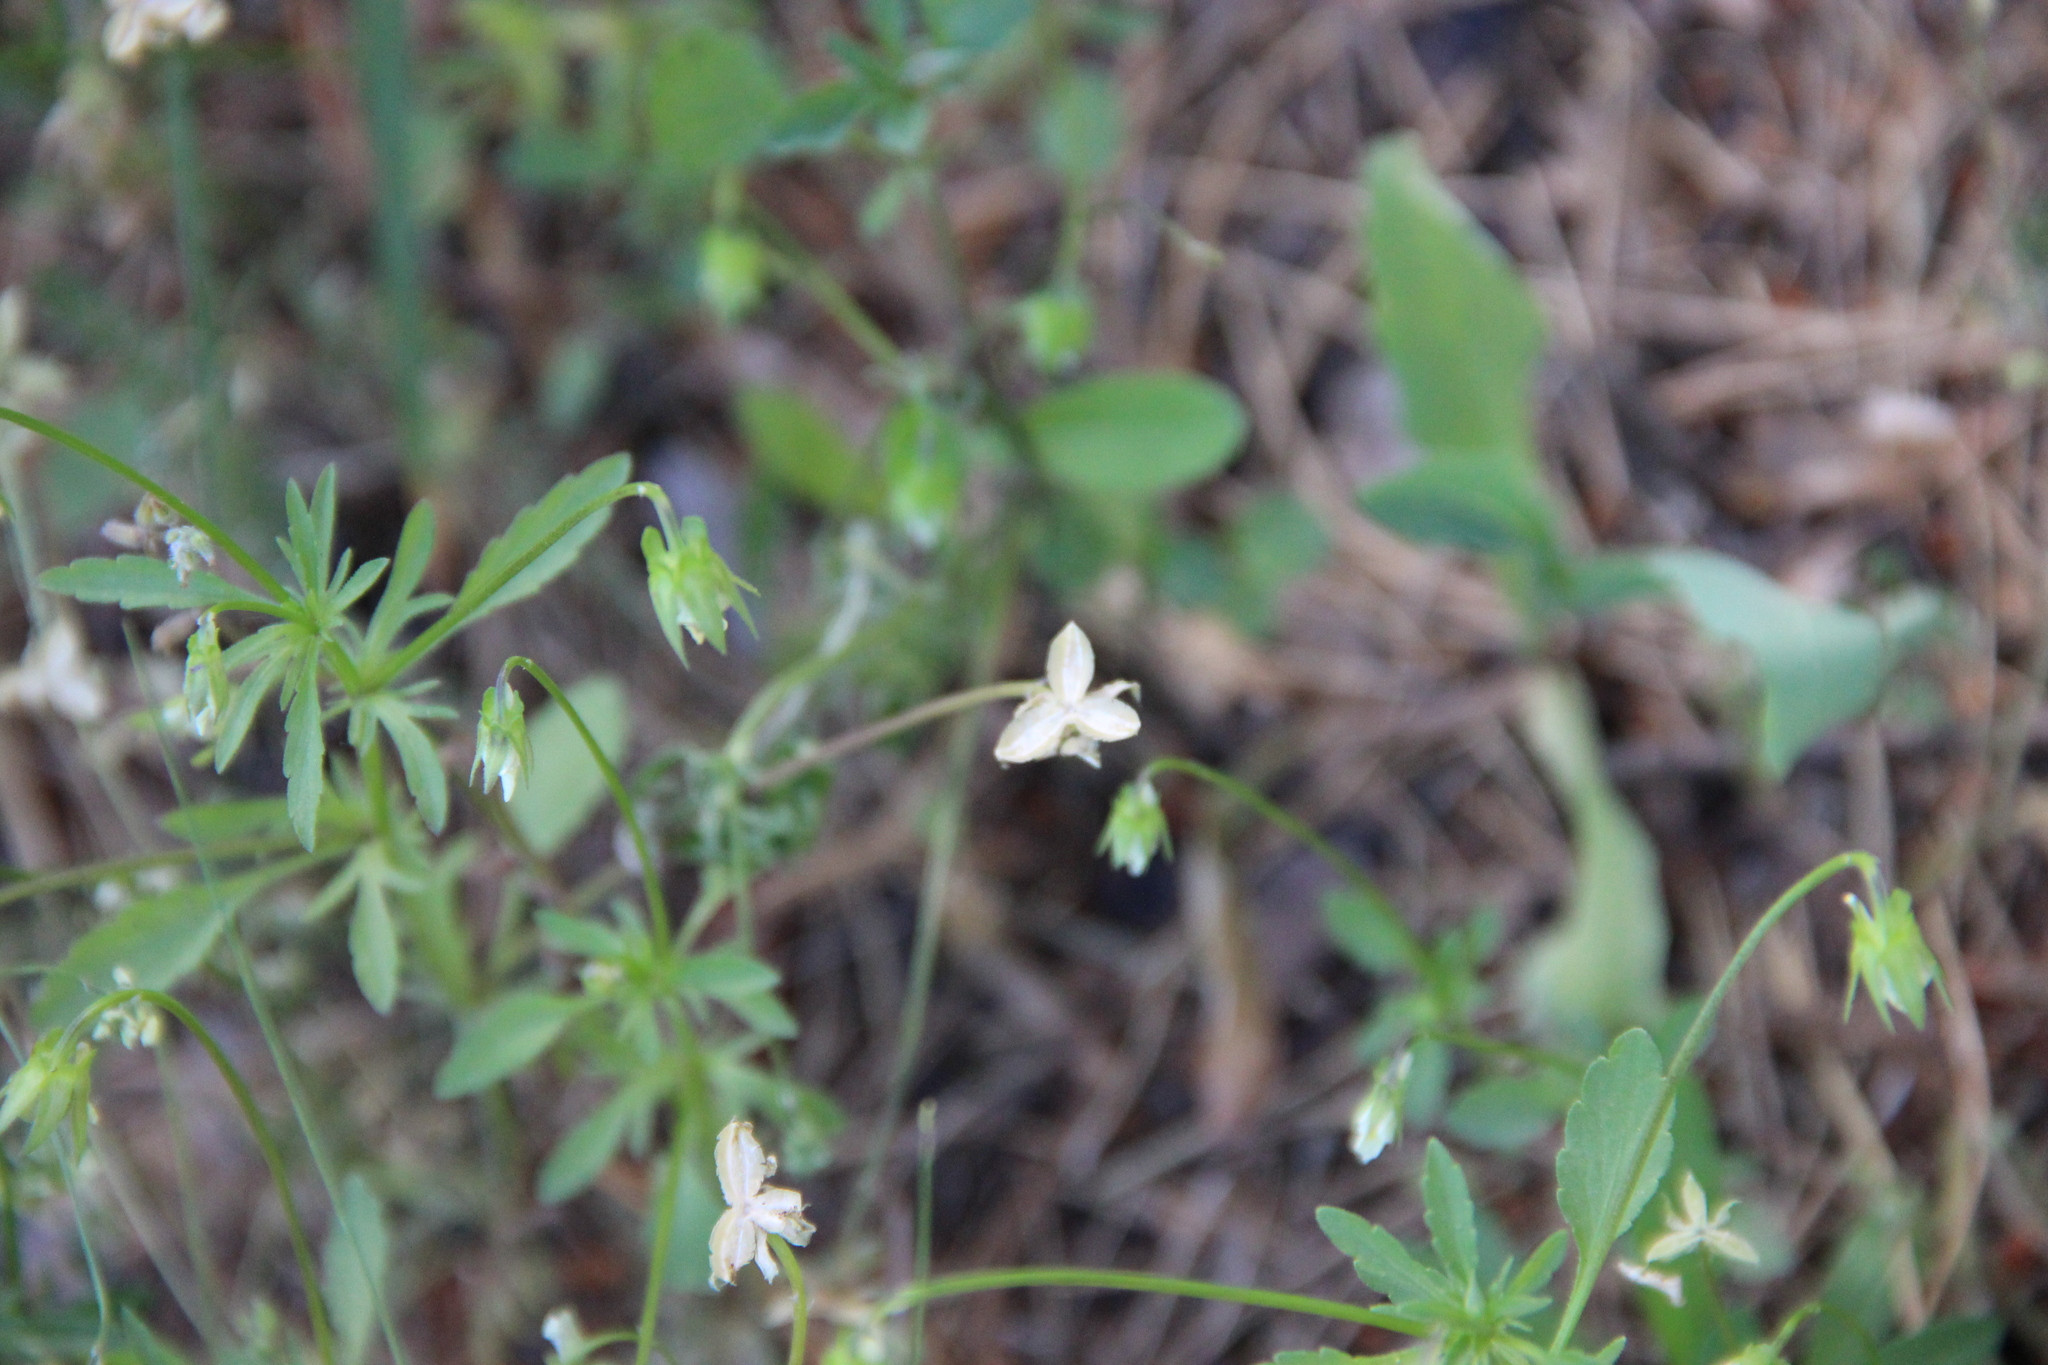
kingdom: Plantae
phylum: Tracheophyta
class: Magnoliopsida
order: Malpighiales
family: Violaceae
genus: Viola
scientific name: Viola arvensis
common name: Field pansy
